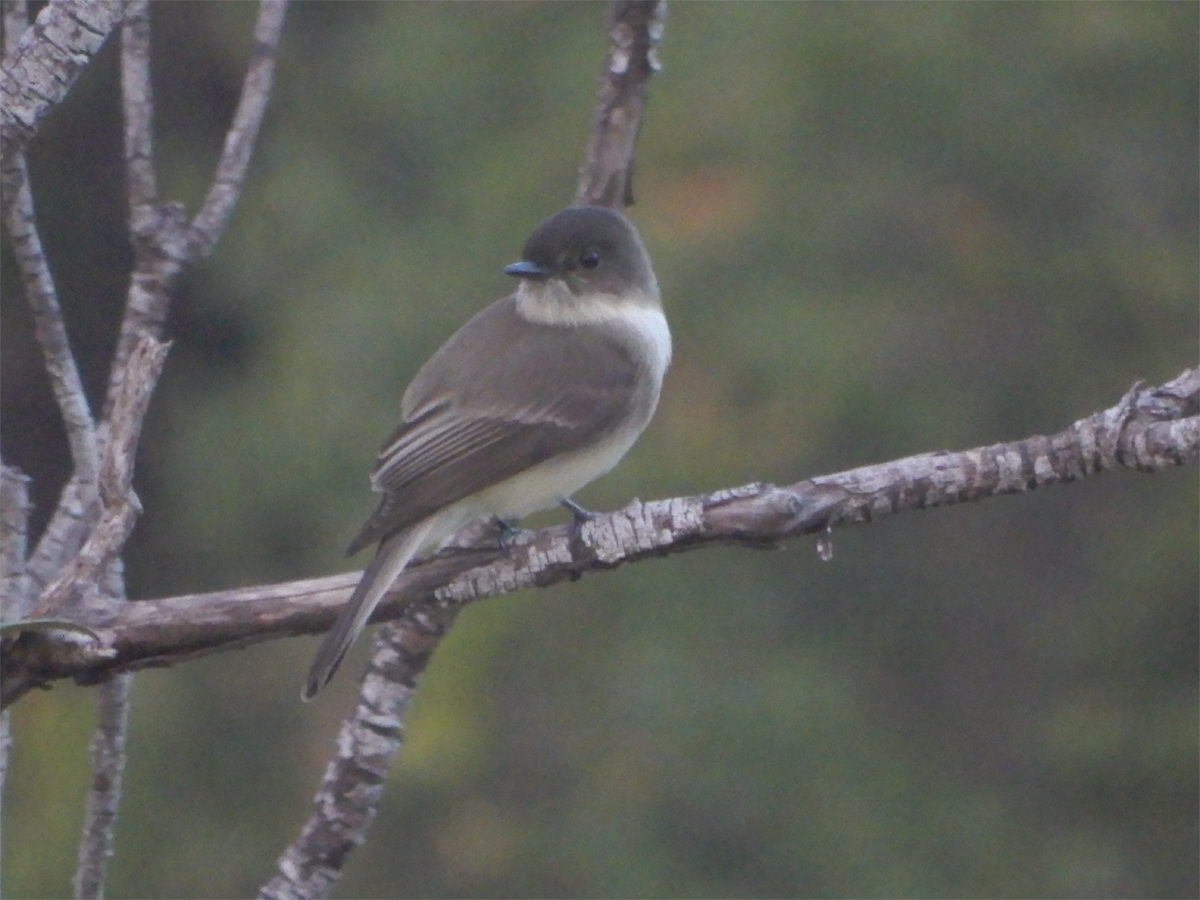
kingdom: Animalia
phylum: Chordata
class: Aves
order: Passeriformes
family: Tyrannidae
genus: Sayornis
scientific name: Sayornis phoebe
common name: Eastern phoebe
